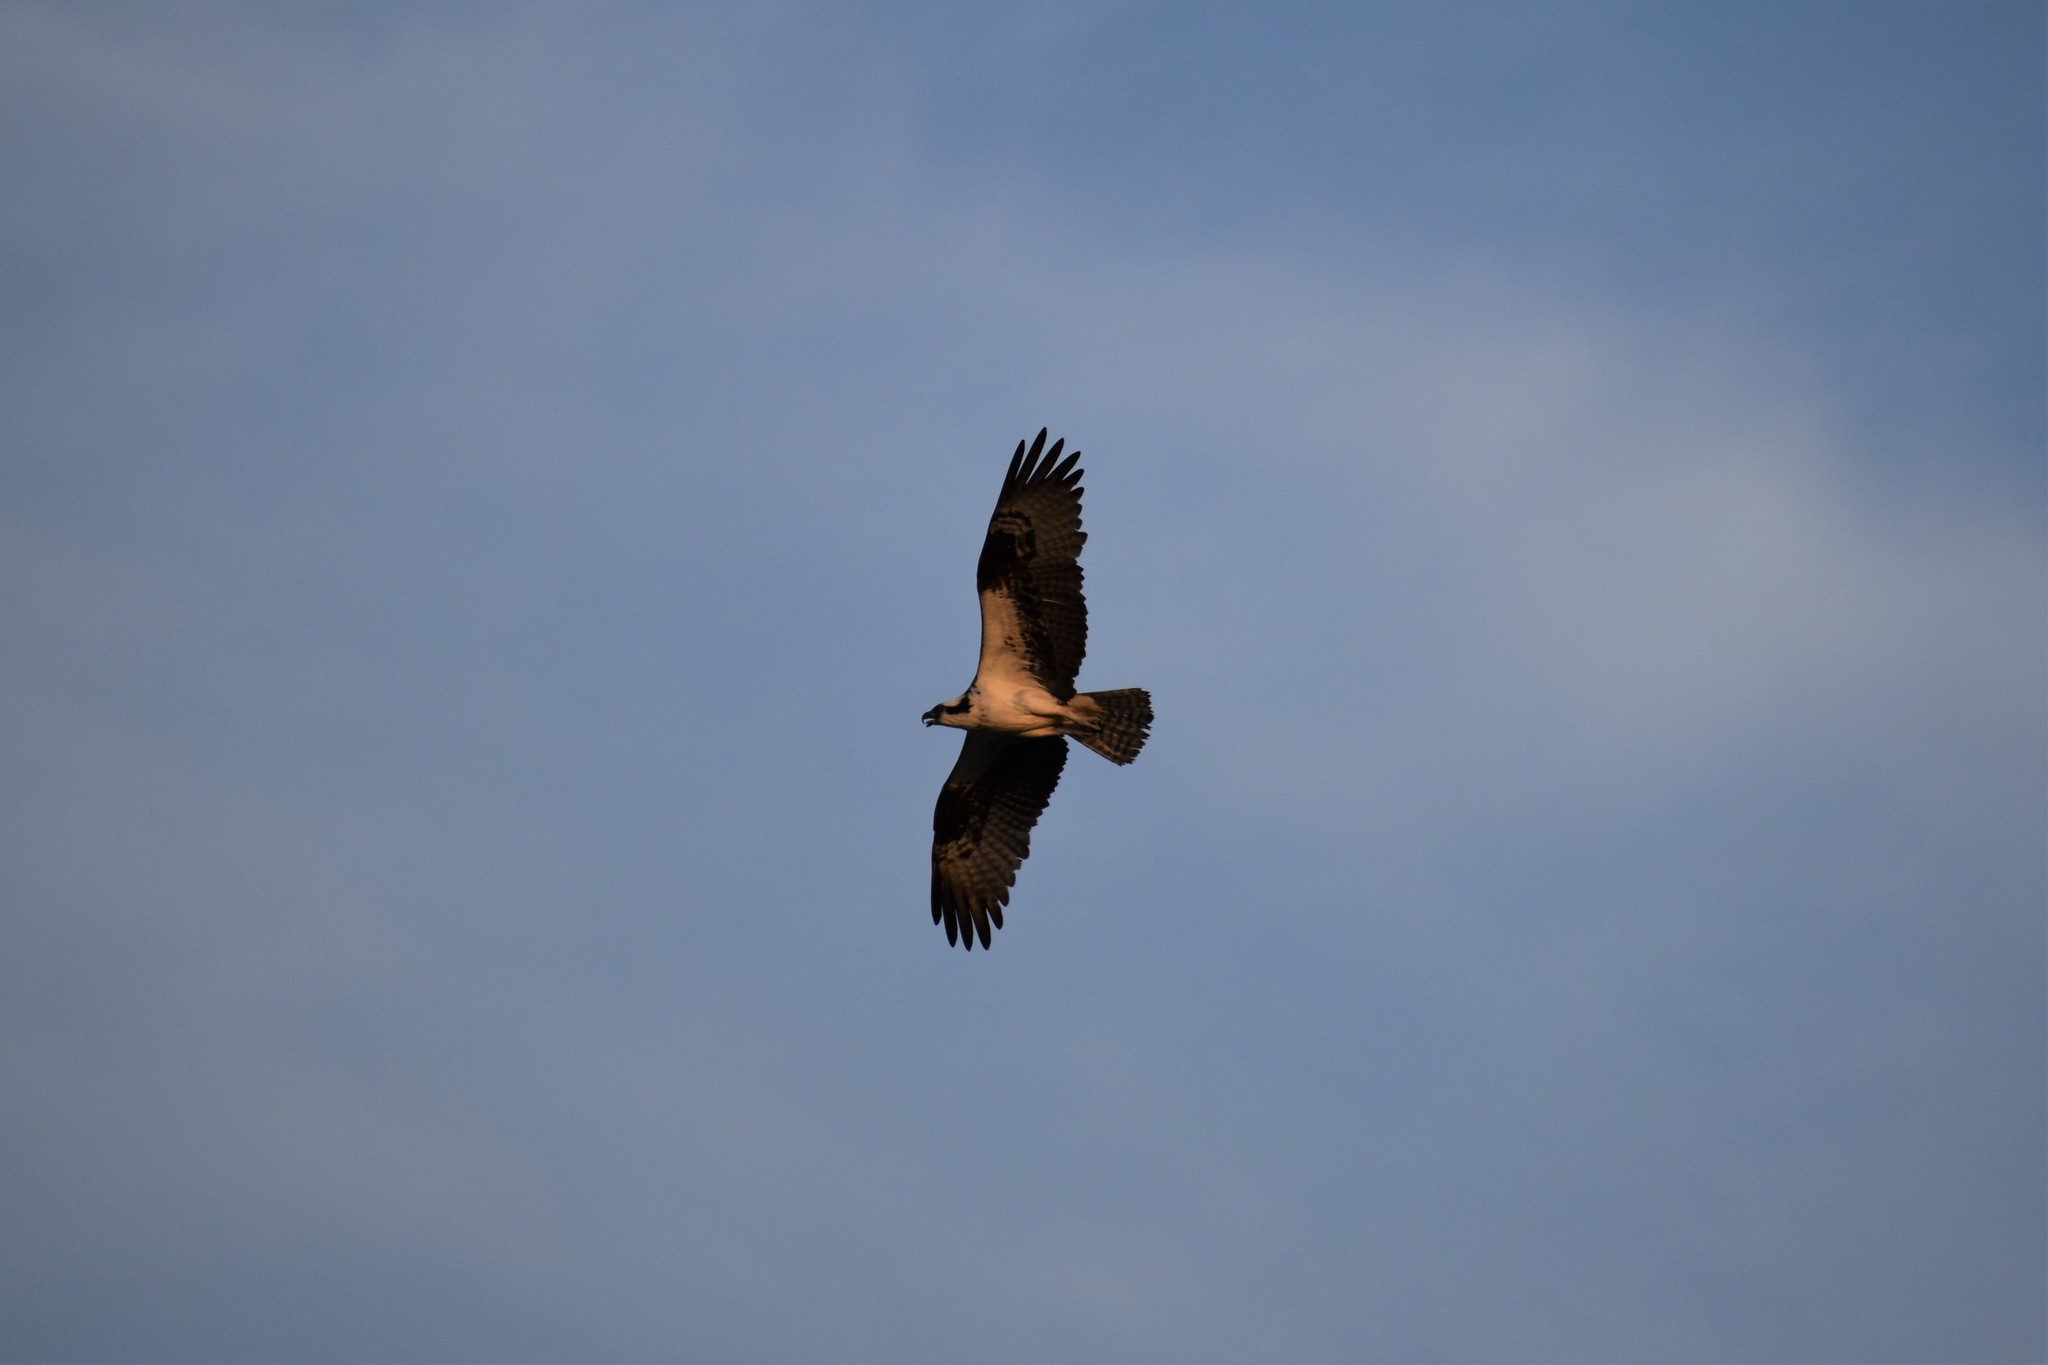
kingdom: Animalia
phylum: Chordata
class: Aves
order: Accipitriformes
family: Pandionidae
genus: Pandion
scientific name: Pandion haliaetus
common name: Osprey
